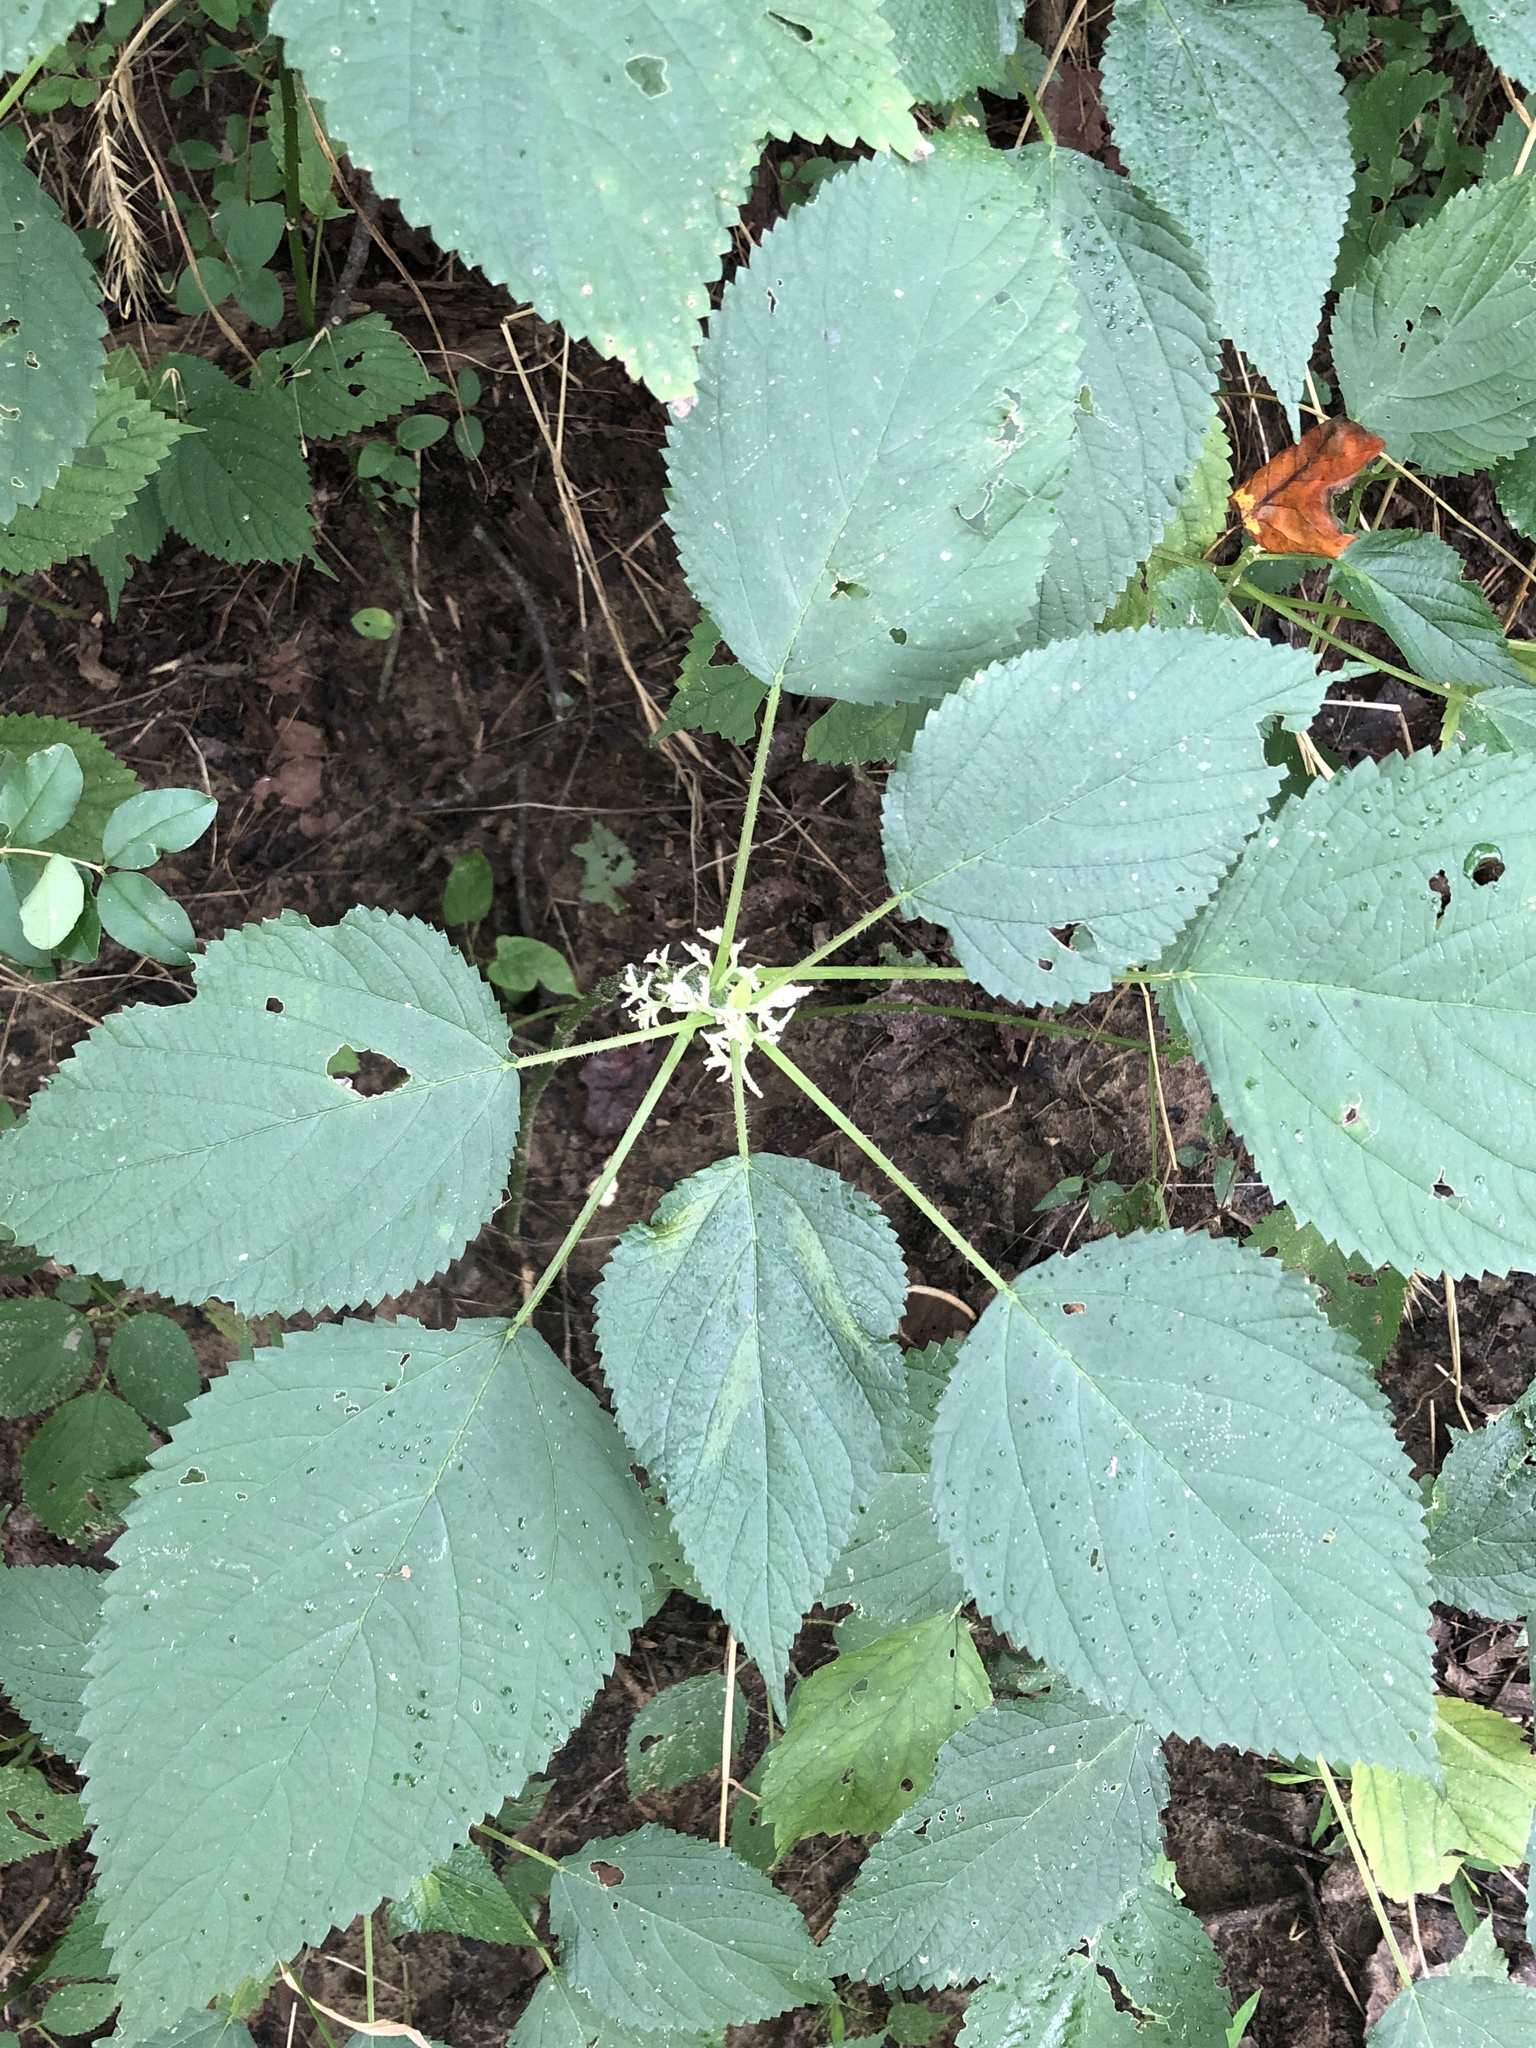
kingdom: Plantae
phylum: Tracheophyta
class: Magnoliopsida
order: Rosales
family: Urticaceae
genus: Laportea
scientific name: Laportea canadensis
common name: Canada nettle
